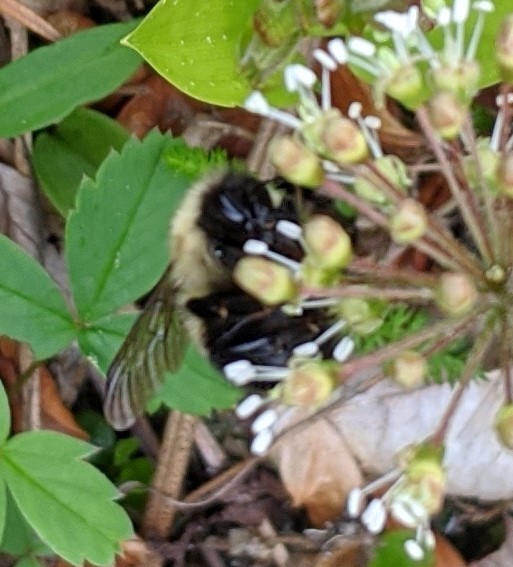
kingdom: Animalia
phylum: Arthropoda
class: Insecta
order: Hymenoptera
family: Apidae
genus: Pyrobombus
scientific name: Pyrobombus
